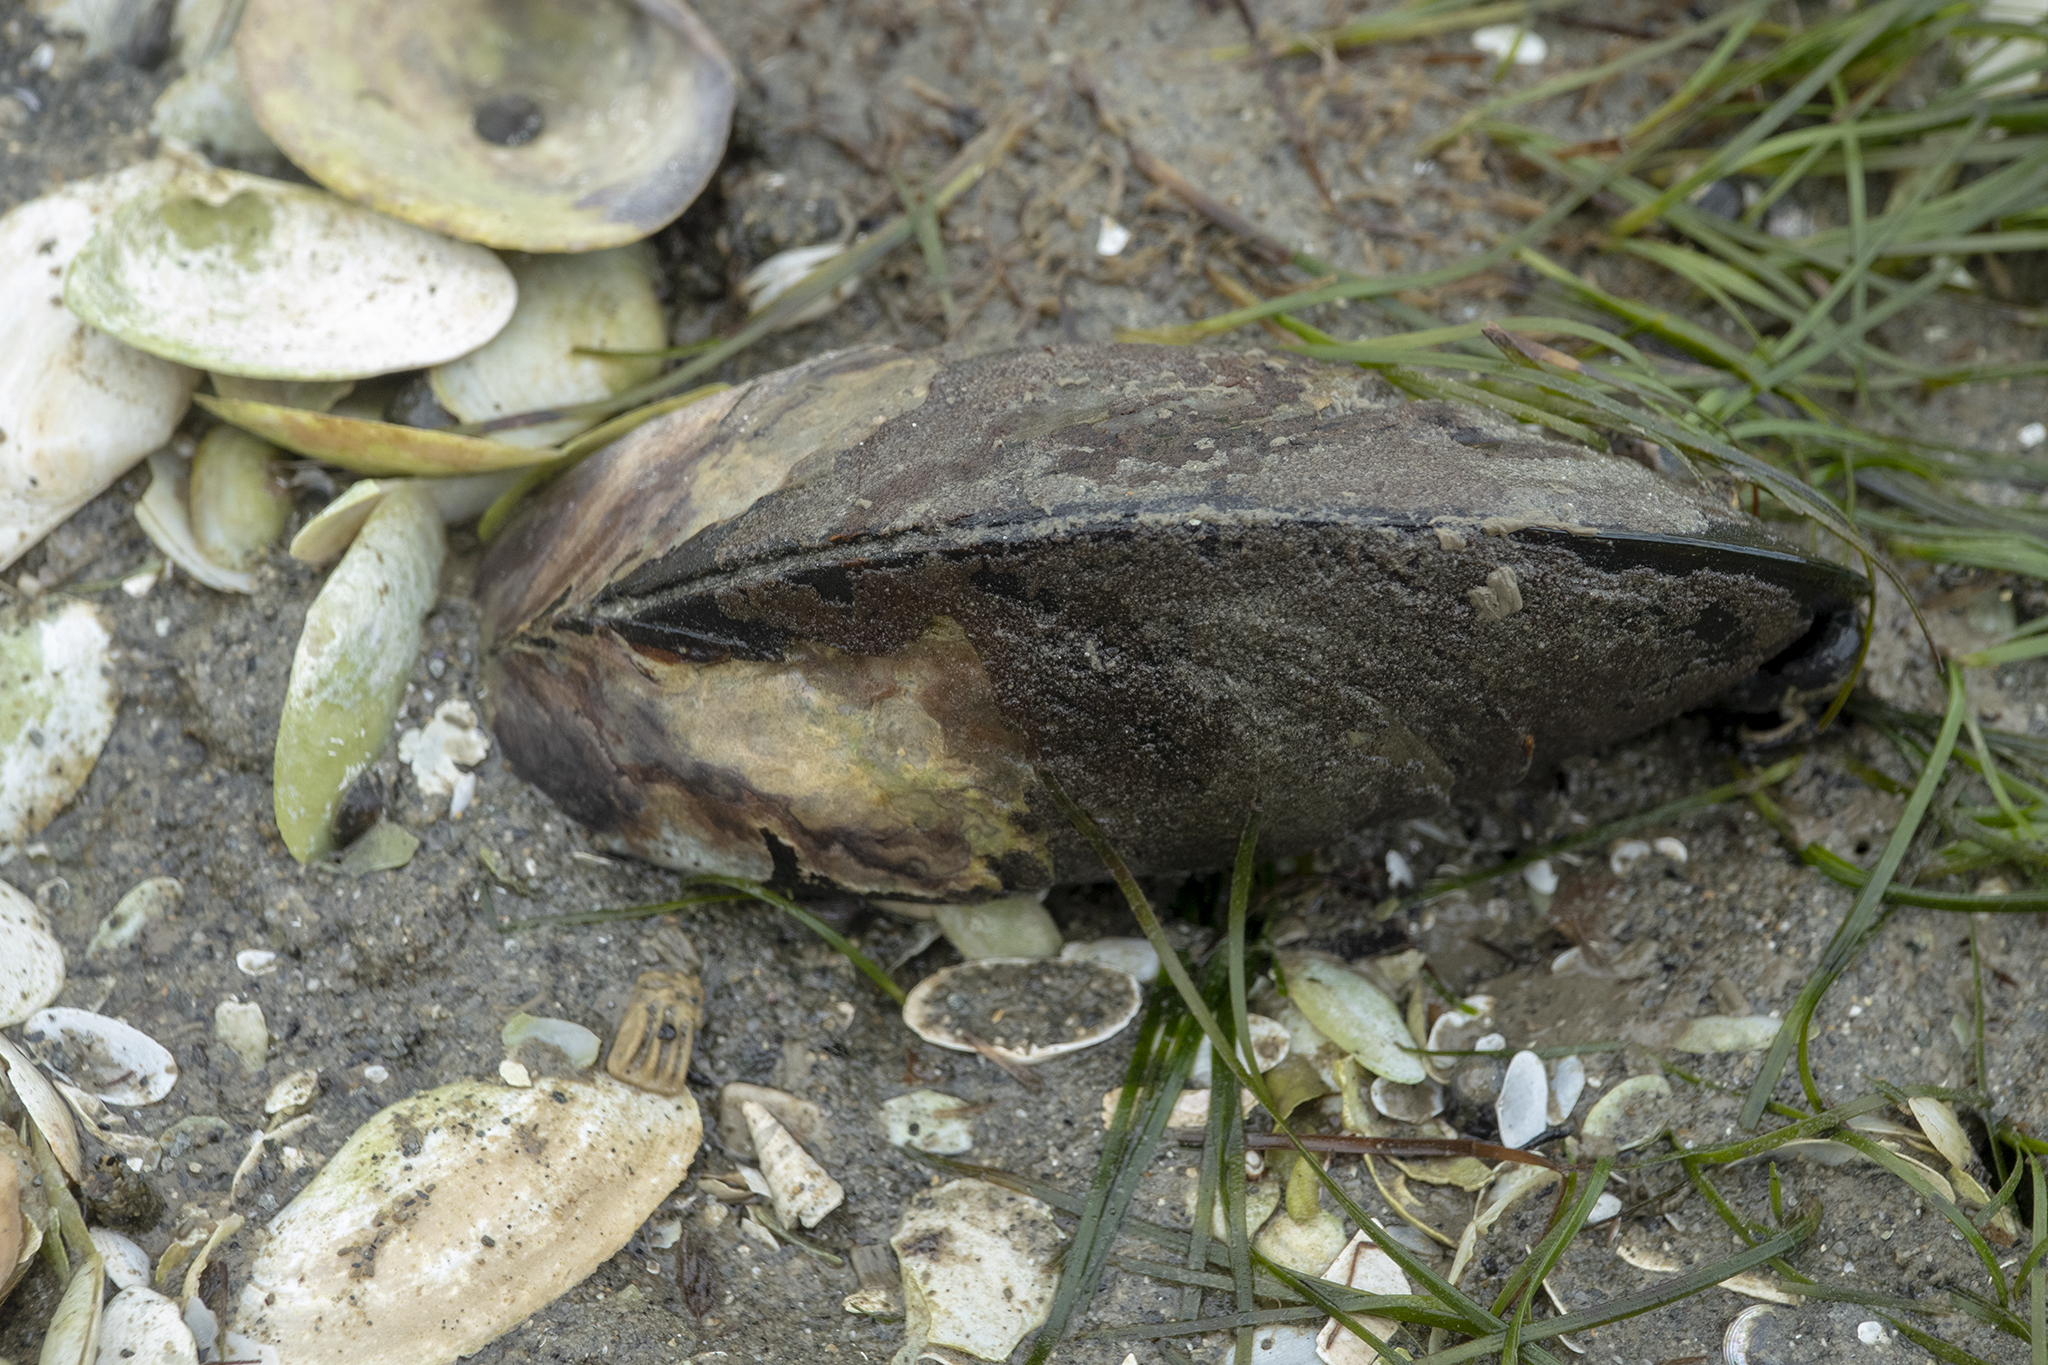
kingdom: Animalia
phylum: Mollusca
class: Bivalvia
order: Mytilida
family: Mytilidae
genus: Perna
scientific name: Perna canaliculus
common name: New zealand greenshelltm
